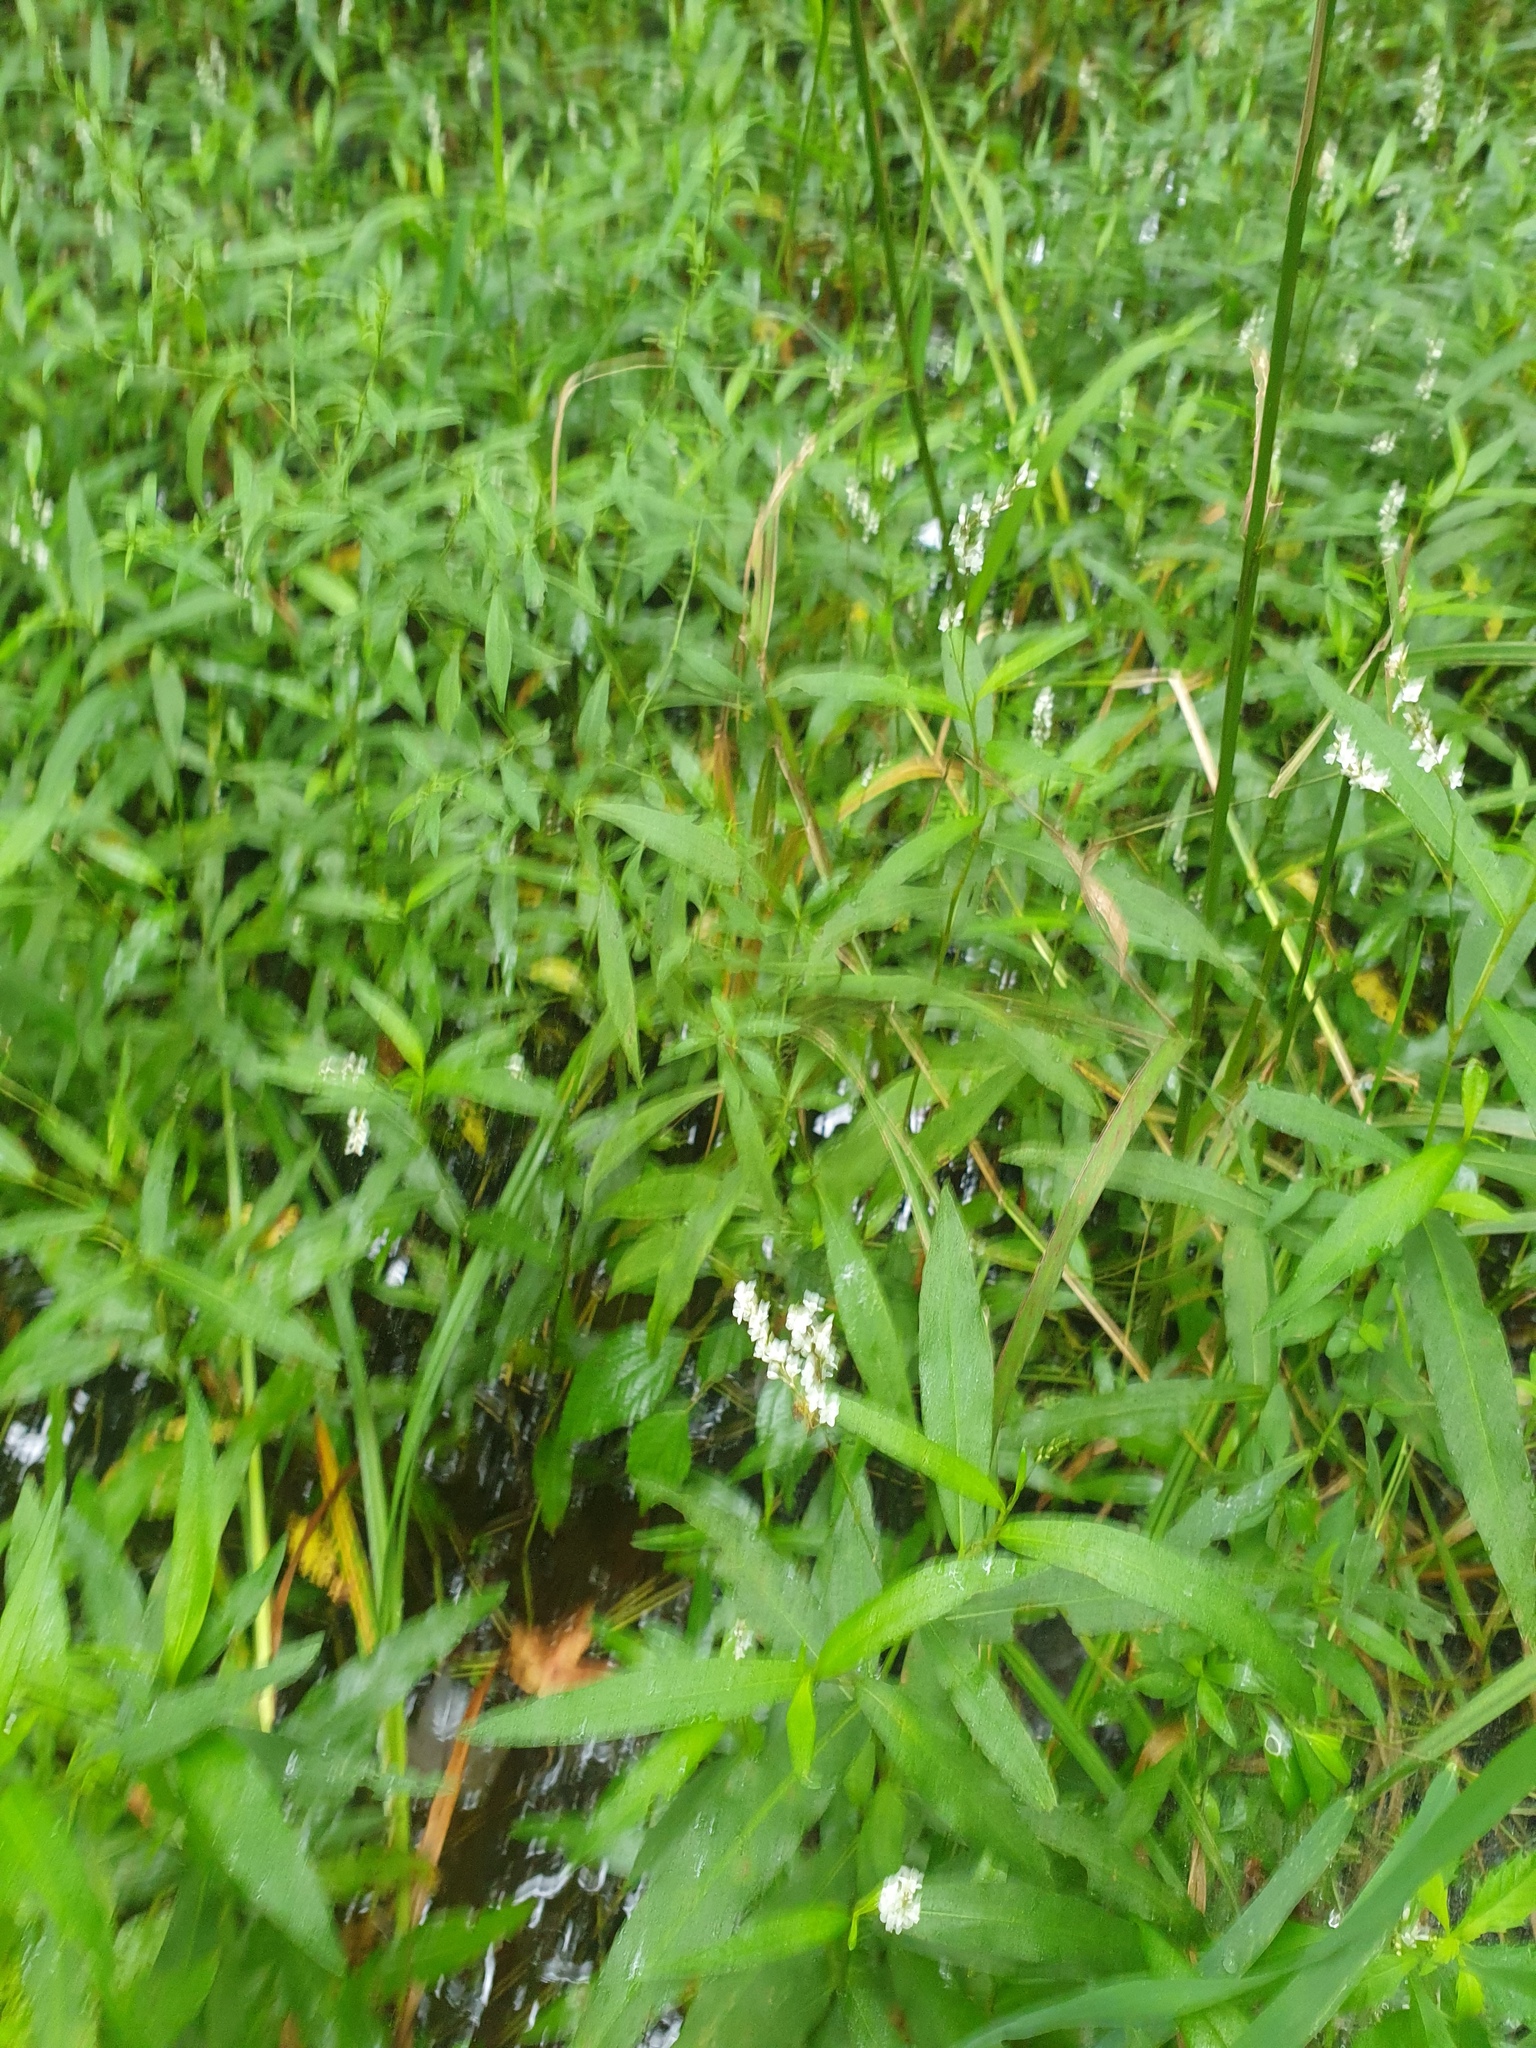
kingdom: Plantae
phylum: Tracheophyta
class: Magnoliopsida
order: Caryophyllales
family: Polygonaceae
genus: Persicaria
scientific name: Persicaria hydropiperoides
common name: Swamp smartweed
